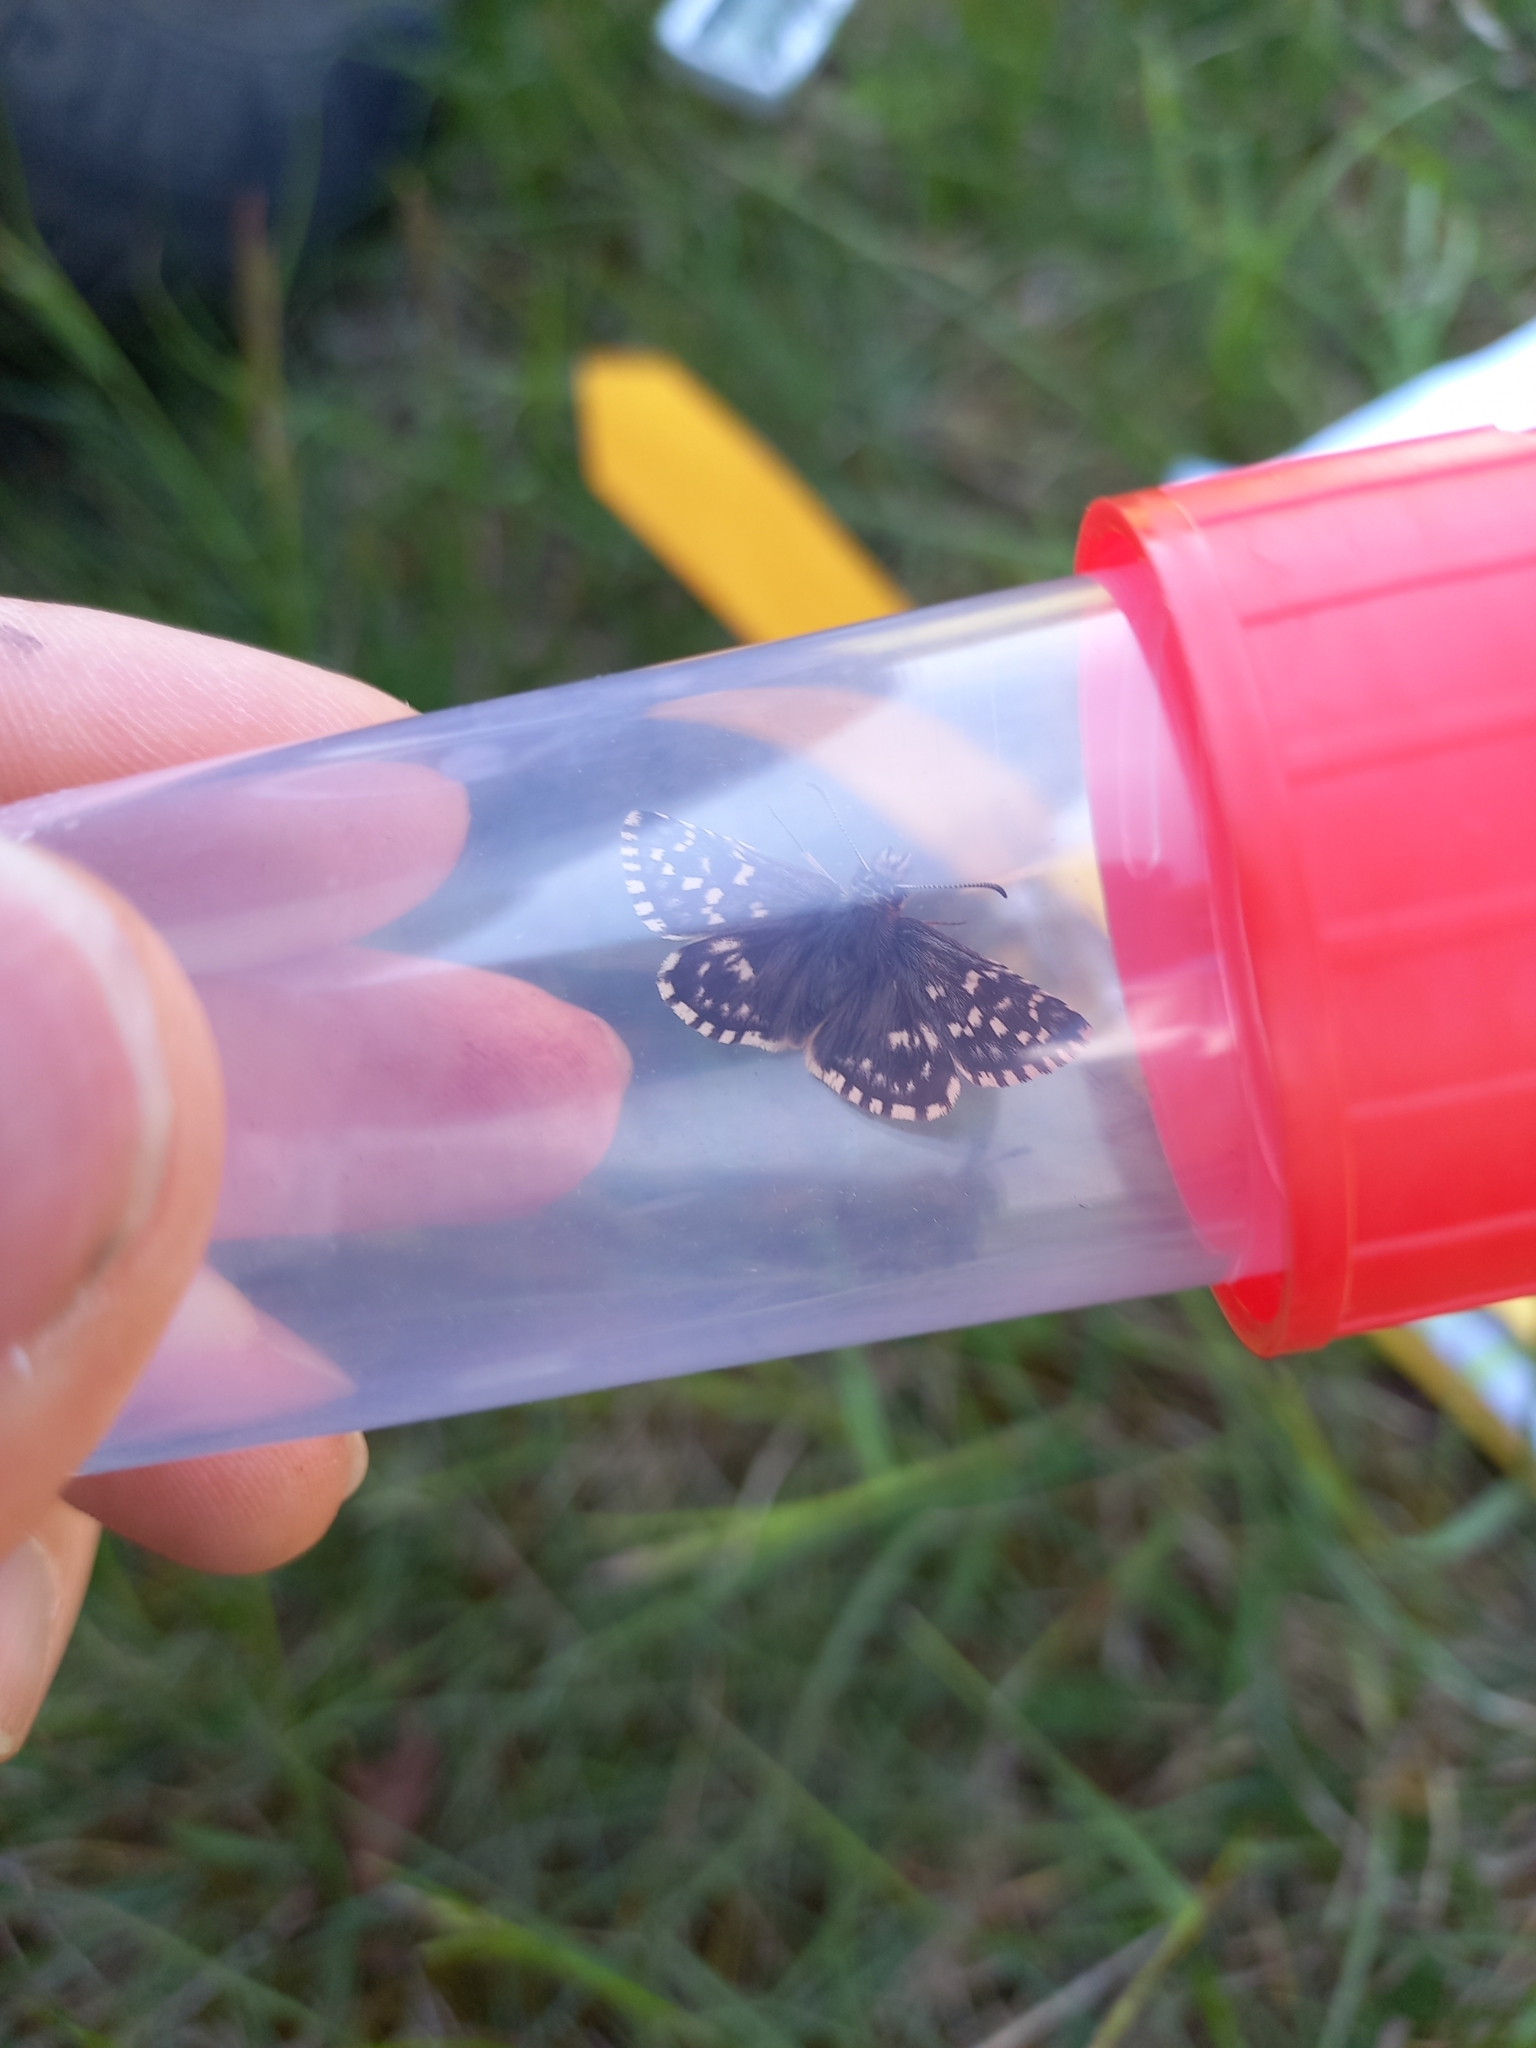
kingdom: Animalia
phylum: Arthropoda
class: Insecta
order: Lepidoptera
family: Hesperiidae
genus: Pyrgus
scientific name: Pyrgus malvae
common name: Grizzled skipper
